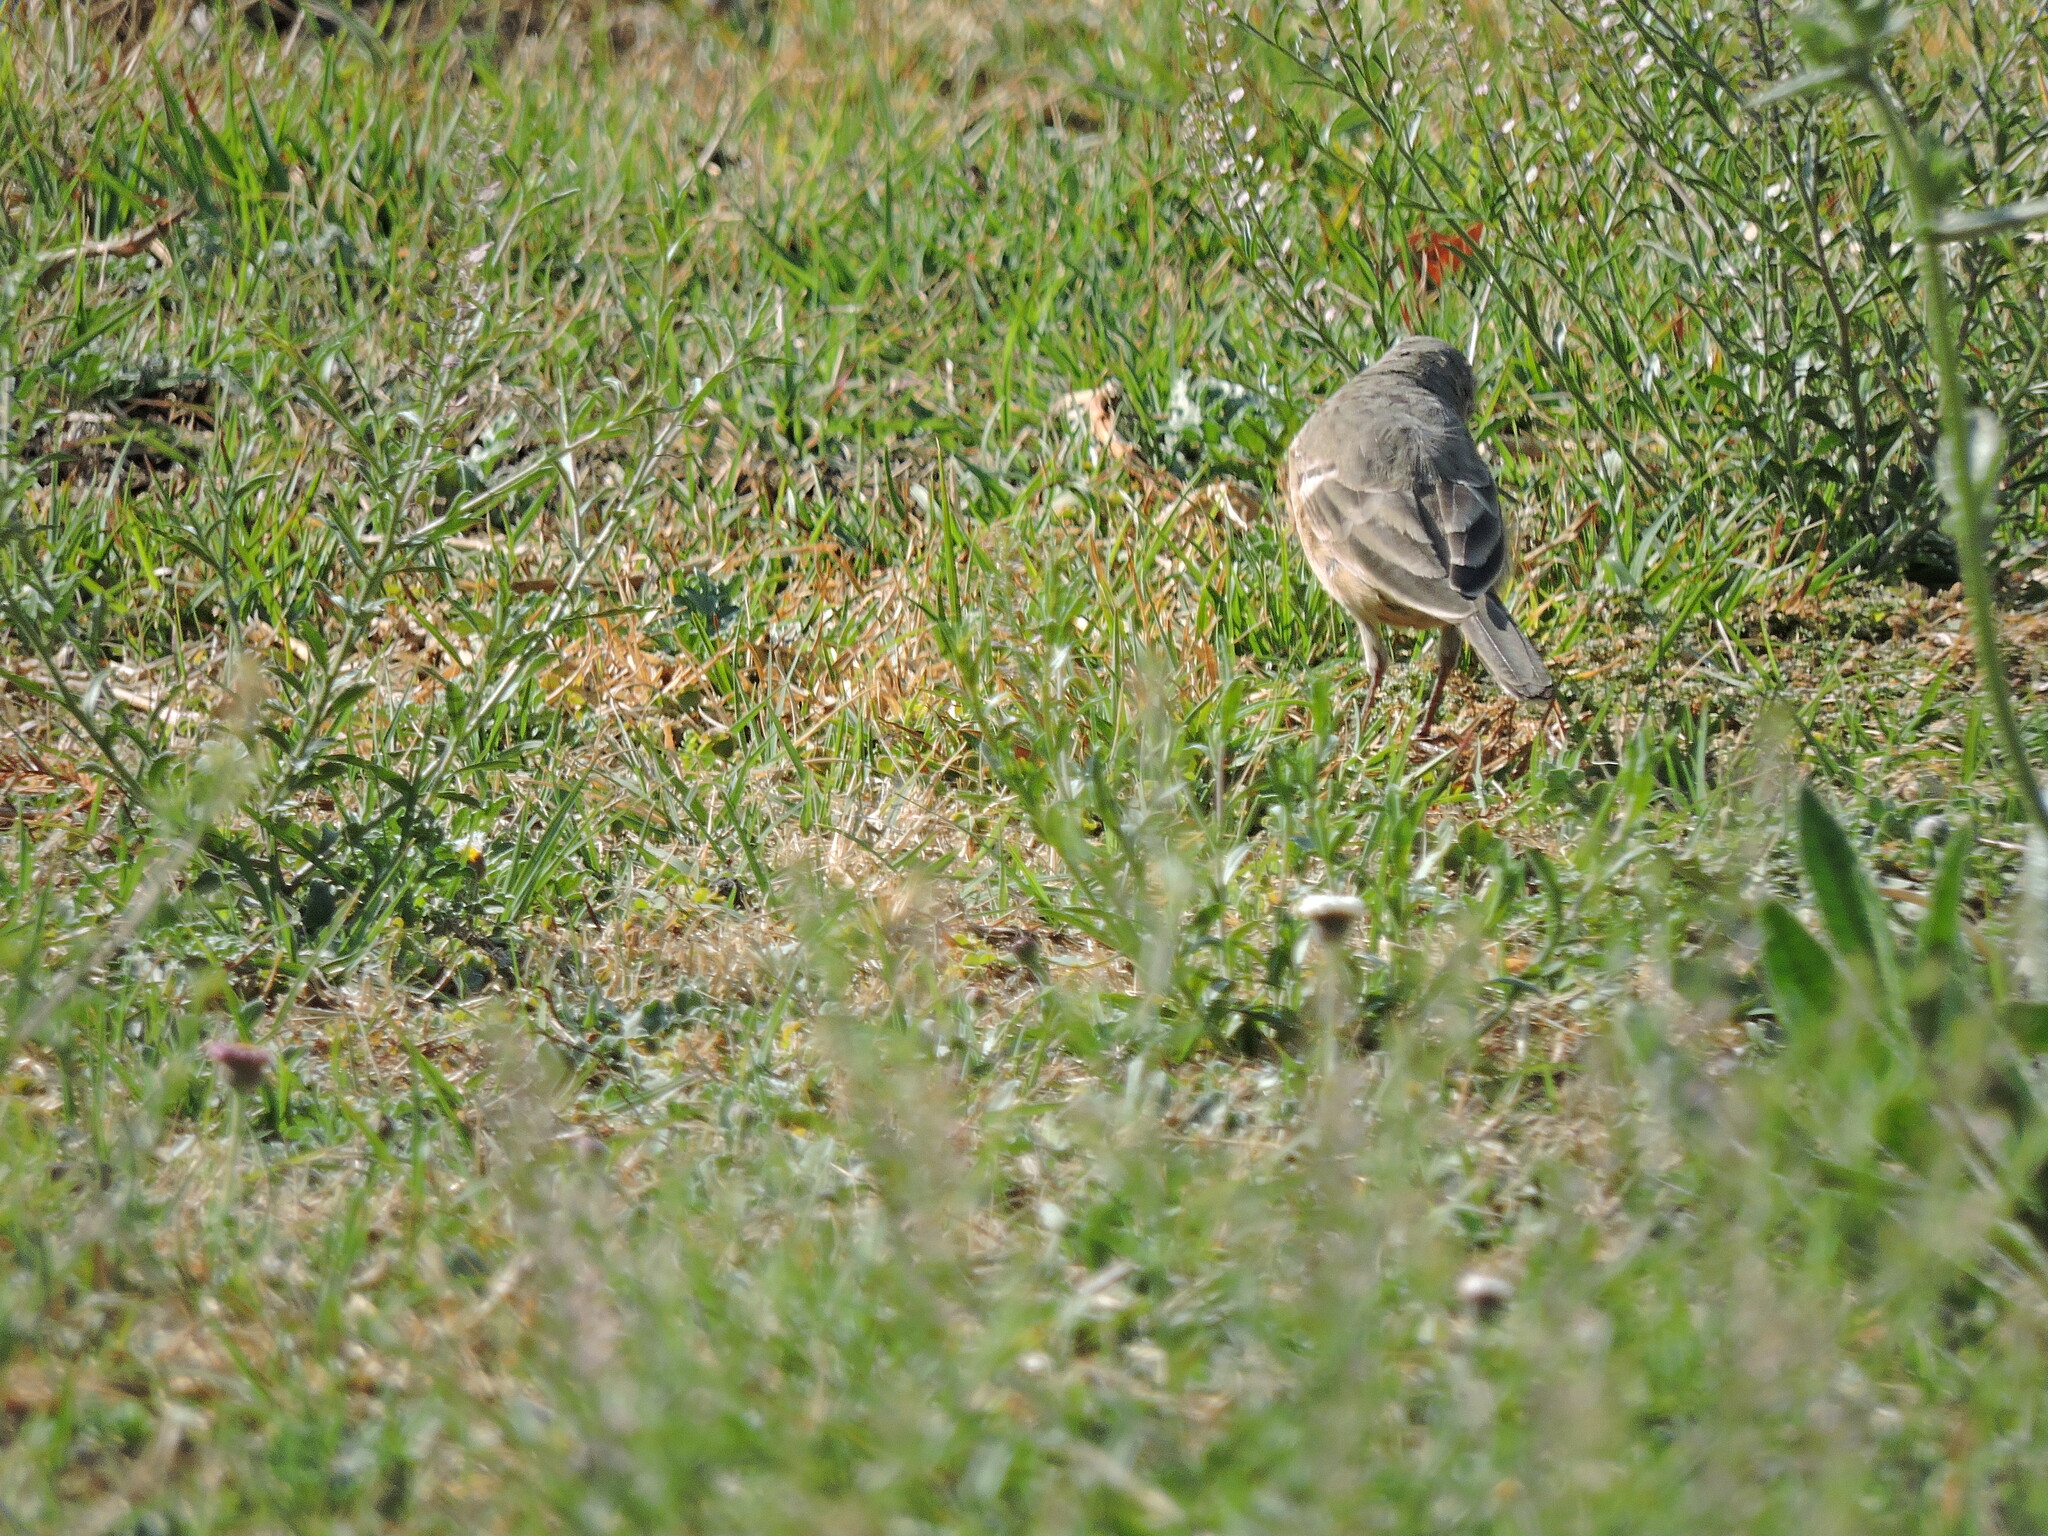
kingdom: Animalia
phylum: Chordata
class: Aves
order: Passeriformes
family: Motacillidae
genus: Anthus
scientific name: Anthus rubescens
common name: Buff-bellied pipit
